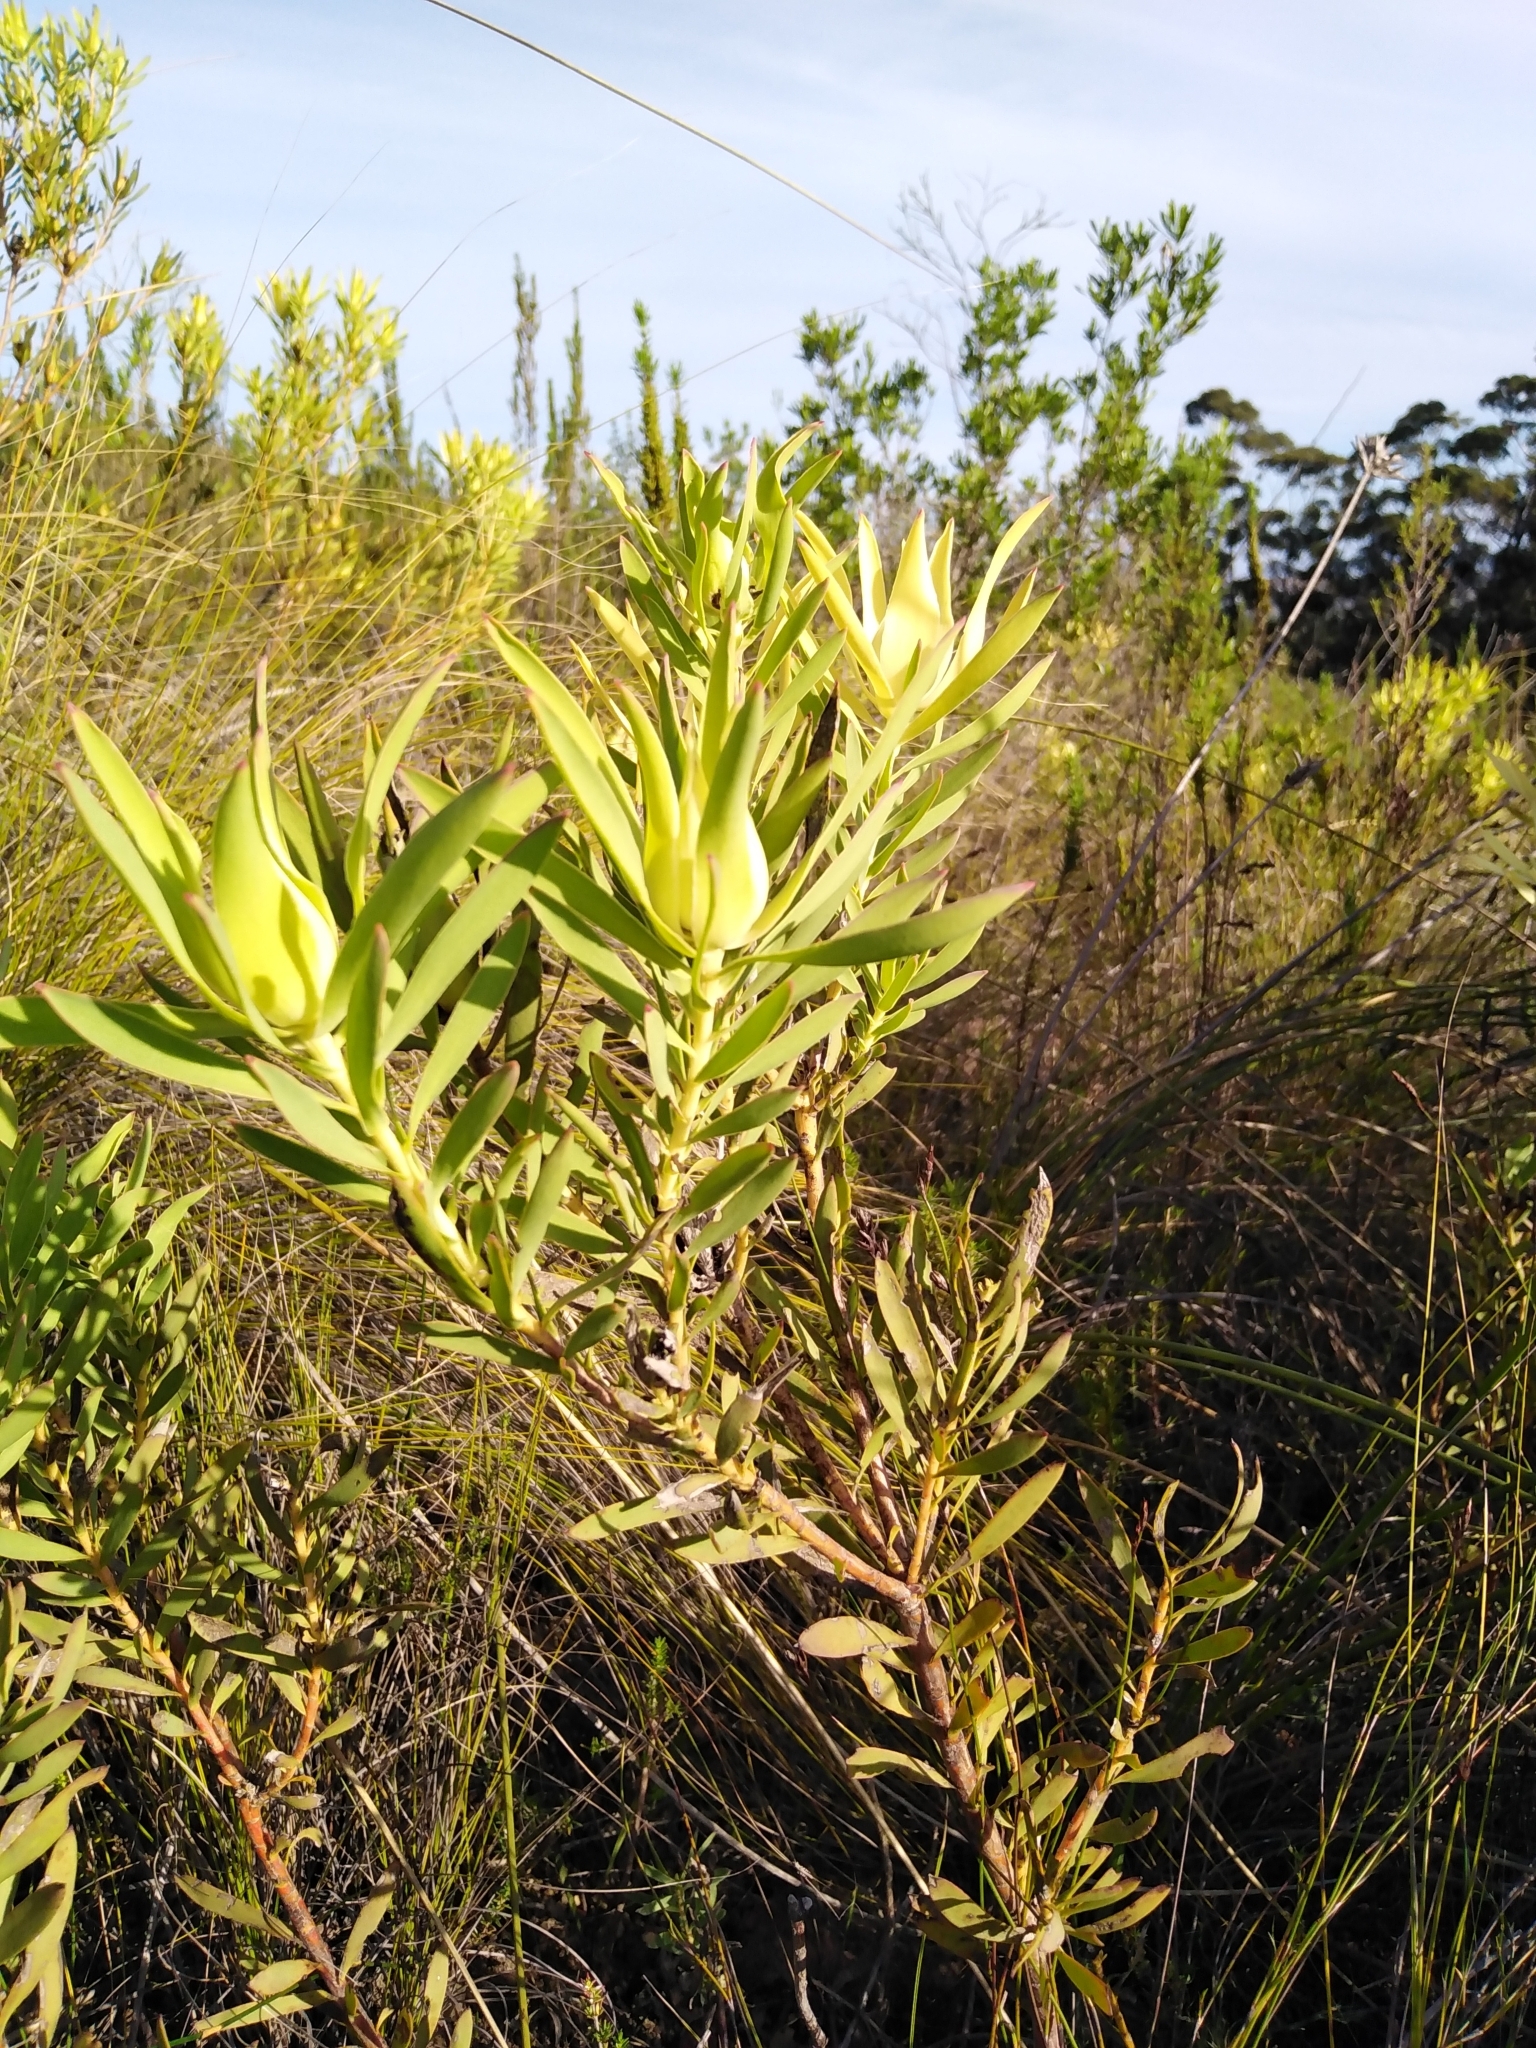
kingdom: Plantae
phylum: Tracheophyta
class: Magnoliopsida
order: Proteales
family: Proteaceae
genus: Leucadendron
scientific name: Leucadendron salignum
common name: Common sunshine conebush
